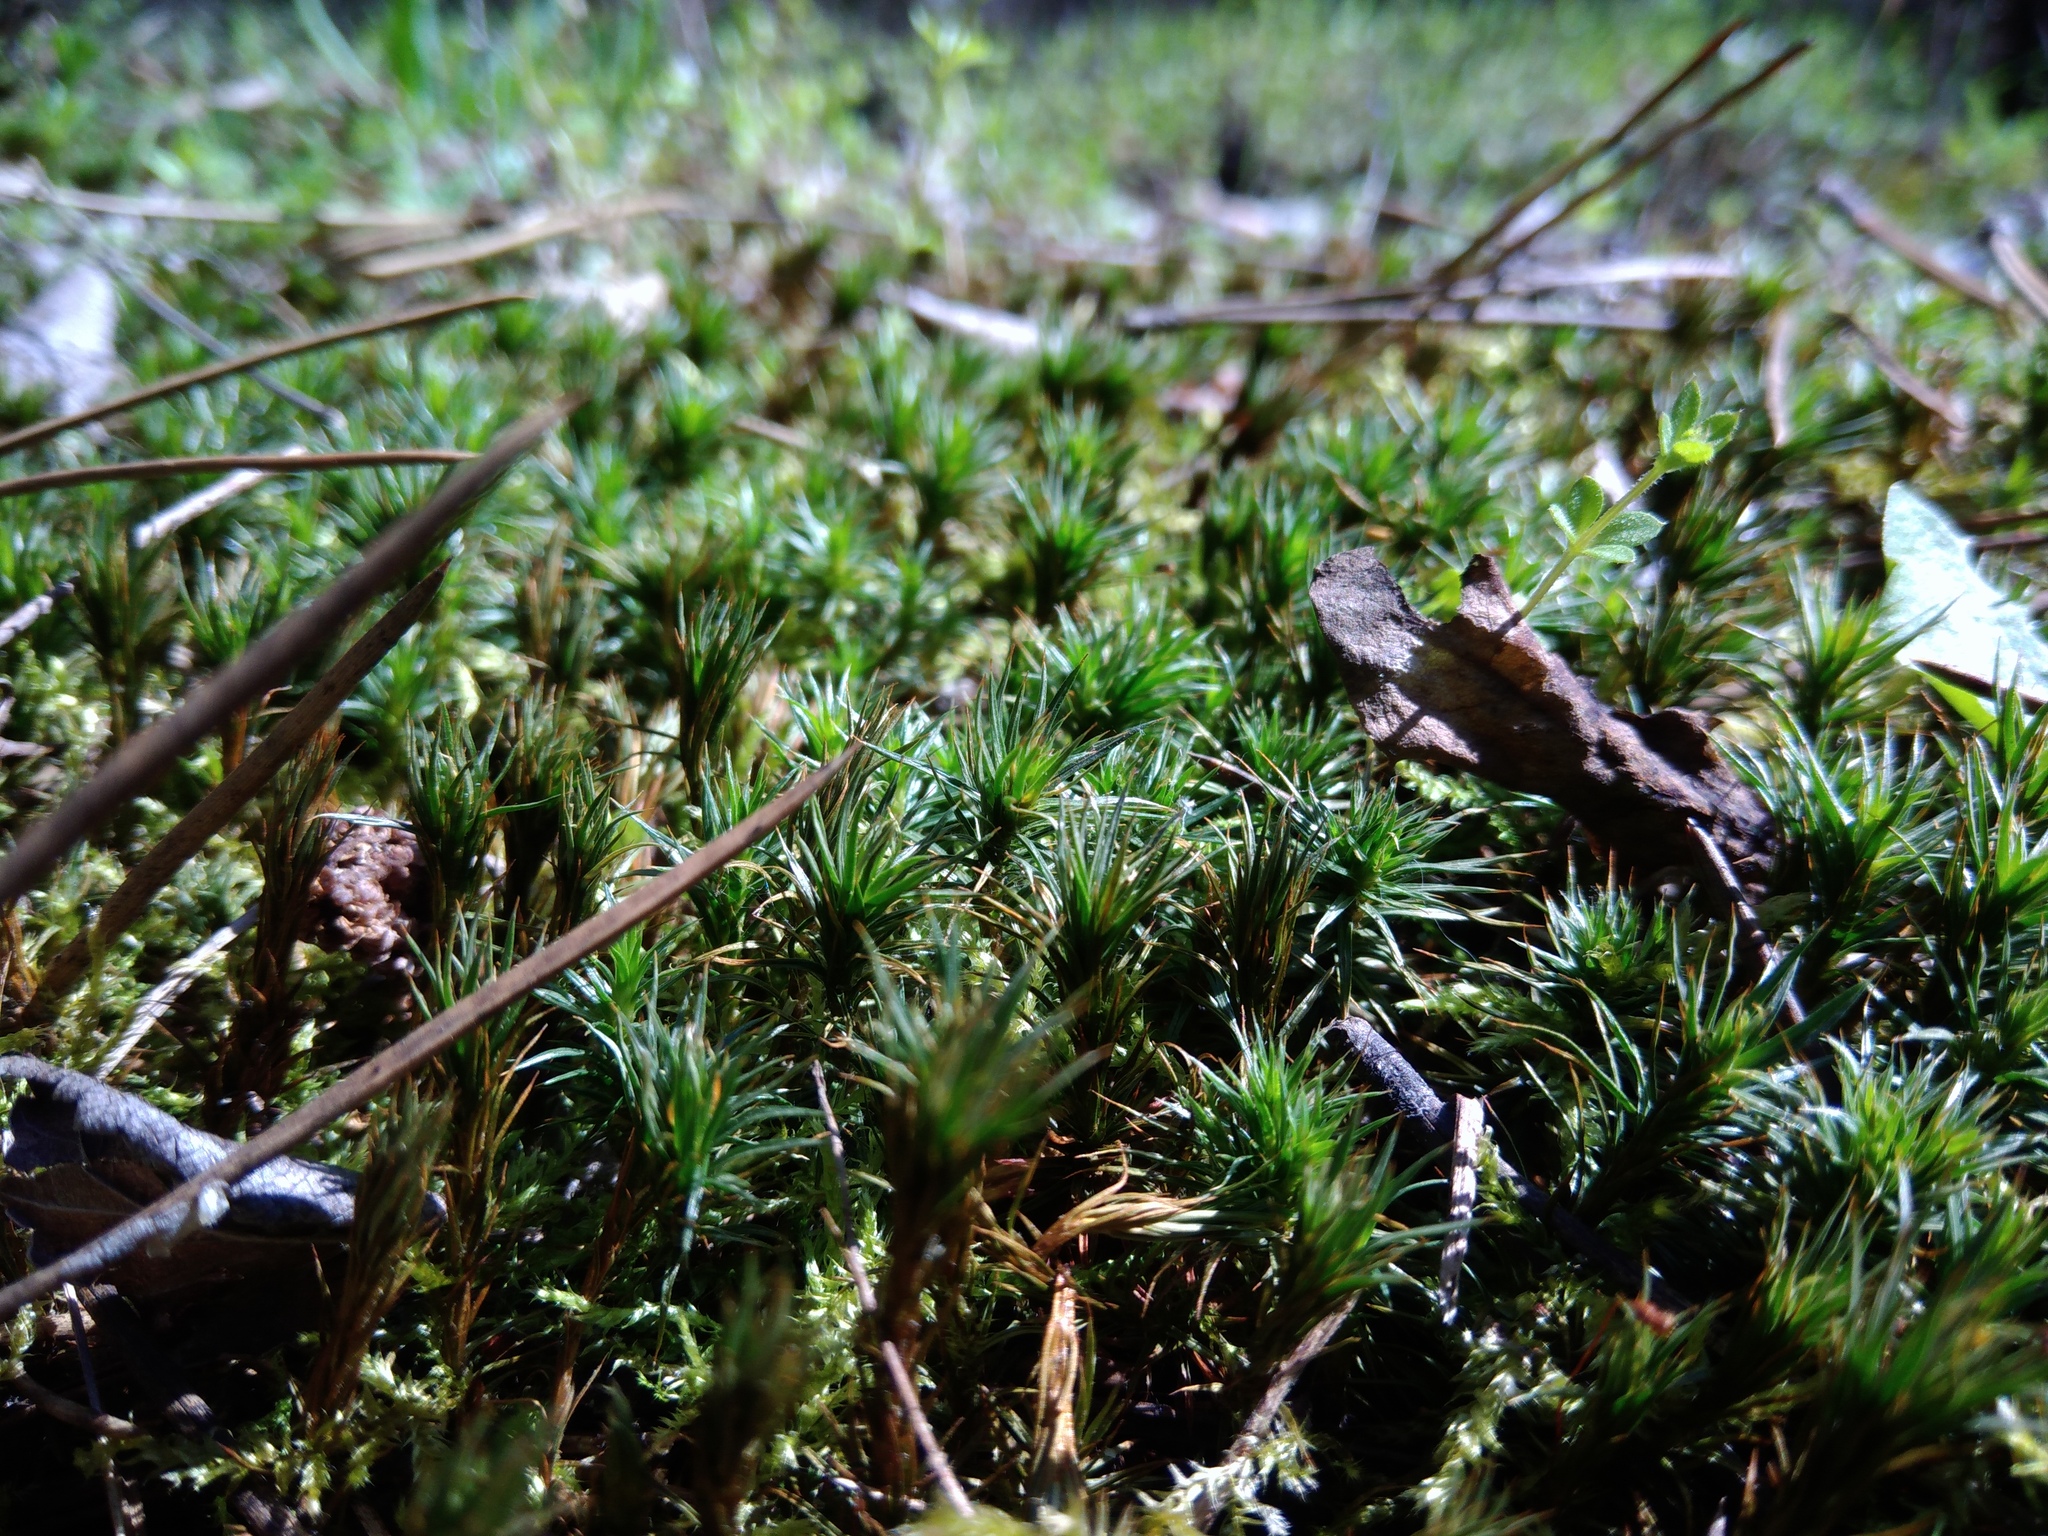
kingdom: Plantae
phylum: Bryophyta
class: Polytrichopsida
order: Polytrichales
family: Polytrichaceae
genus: Polytrichum
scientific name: Polytrichum juniperinum
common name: Juniper haircap moss
